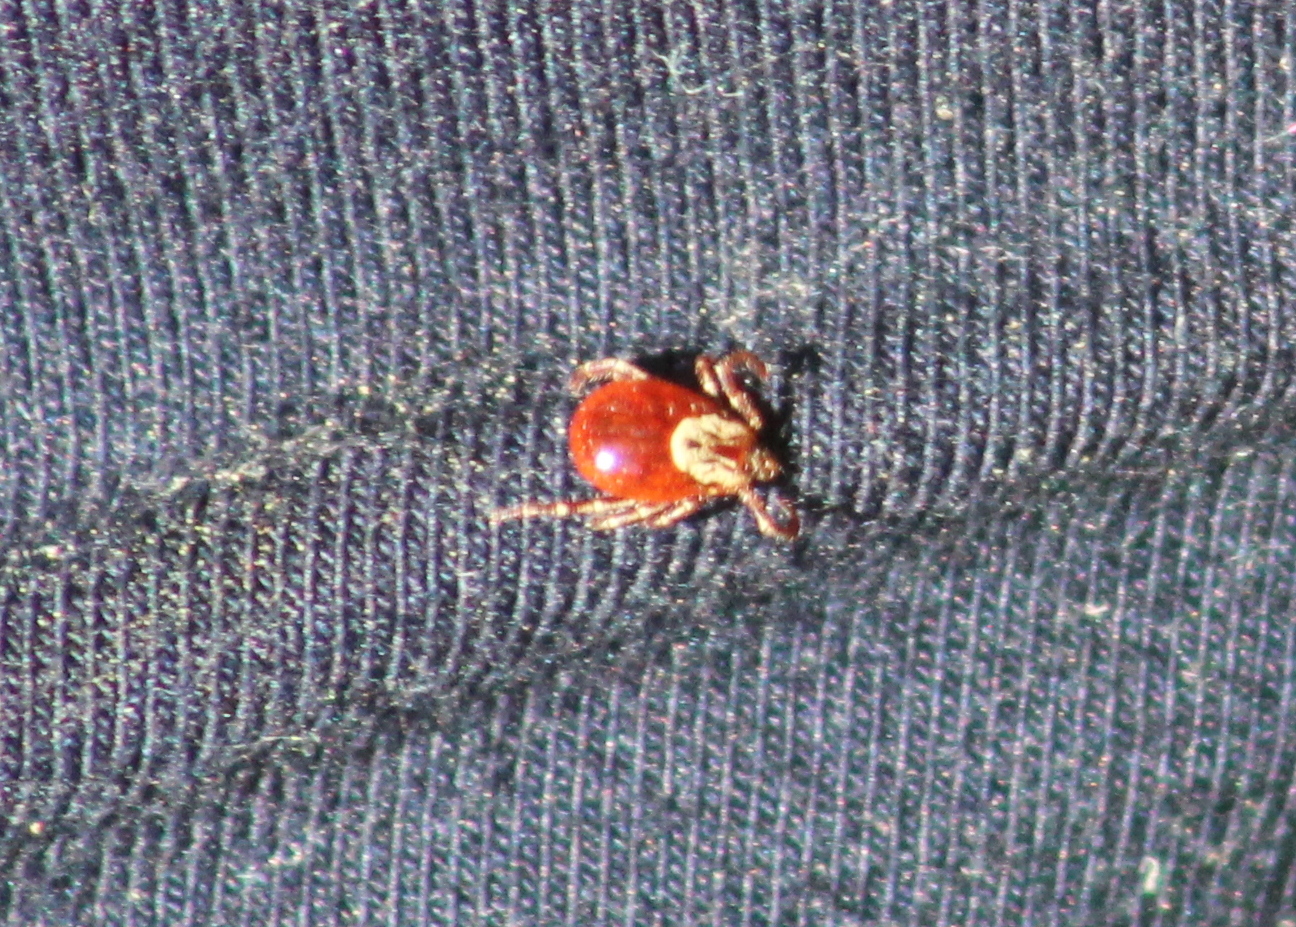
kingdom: Animalia
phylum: Arthropoda
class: Arachnida
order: Ixodida
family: Ixodidae
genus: Dermacentor
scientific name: Dermacentor variabilis
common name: American dog tick
